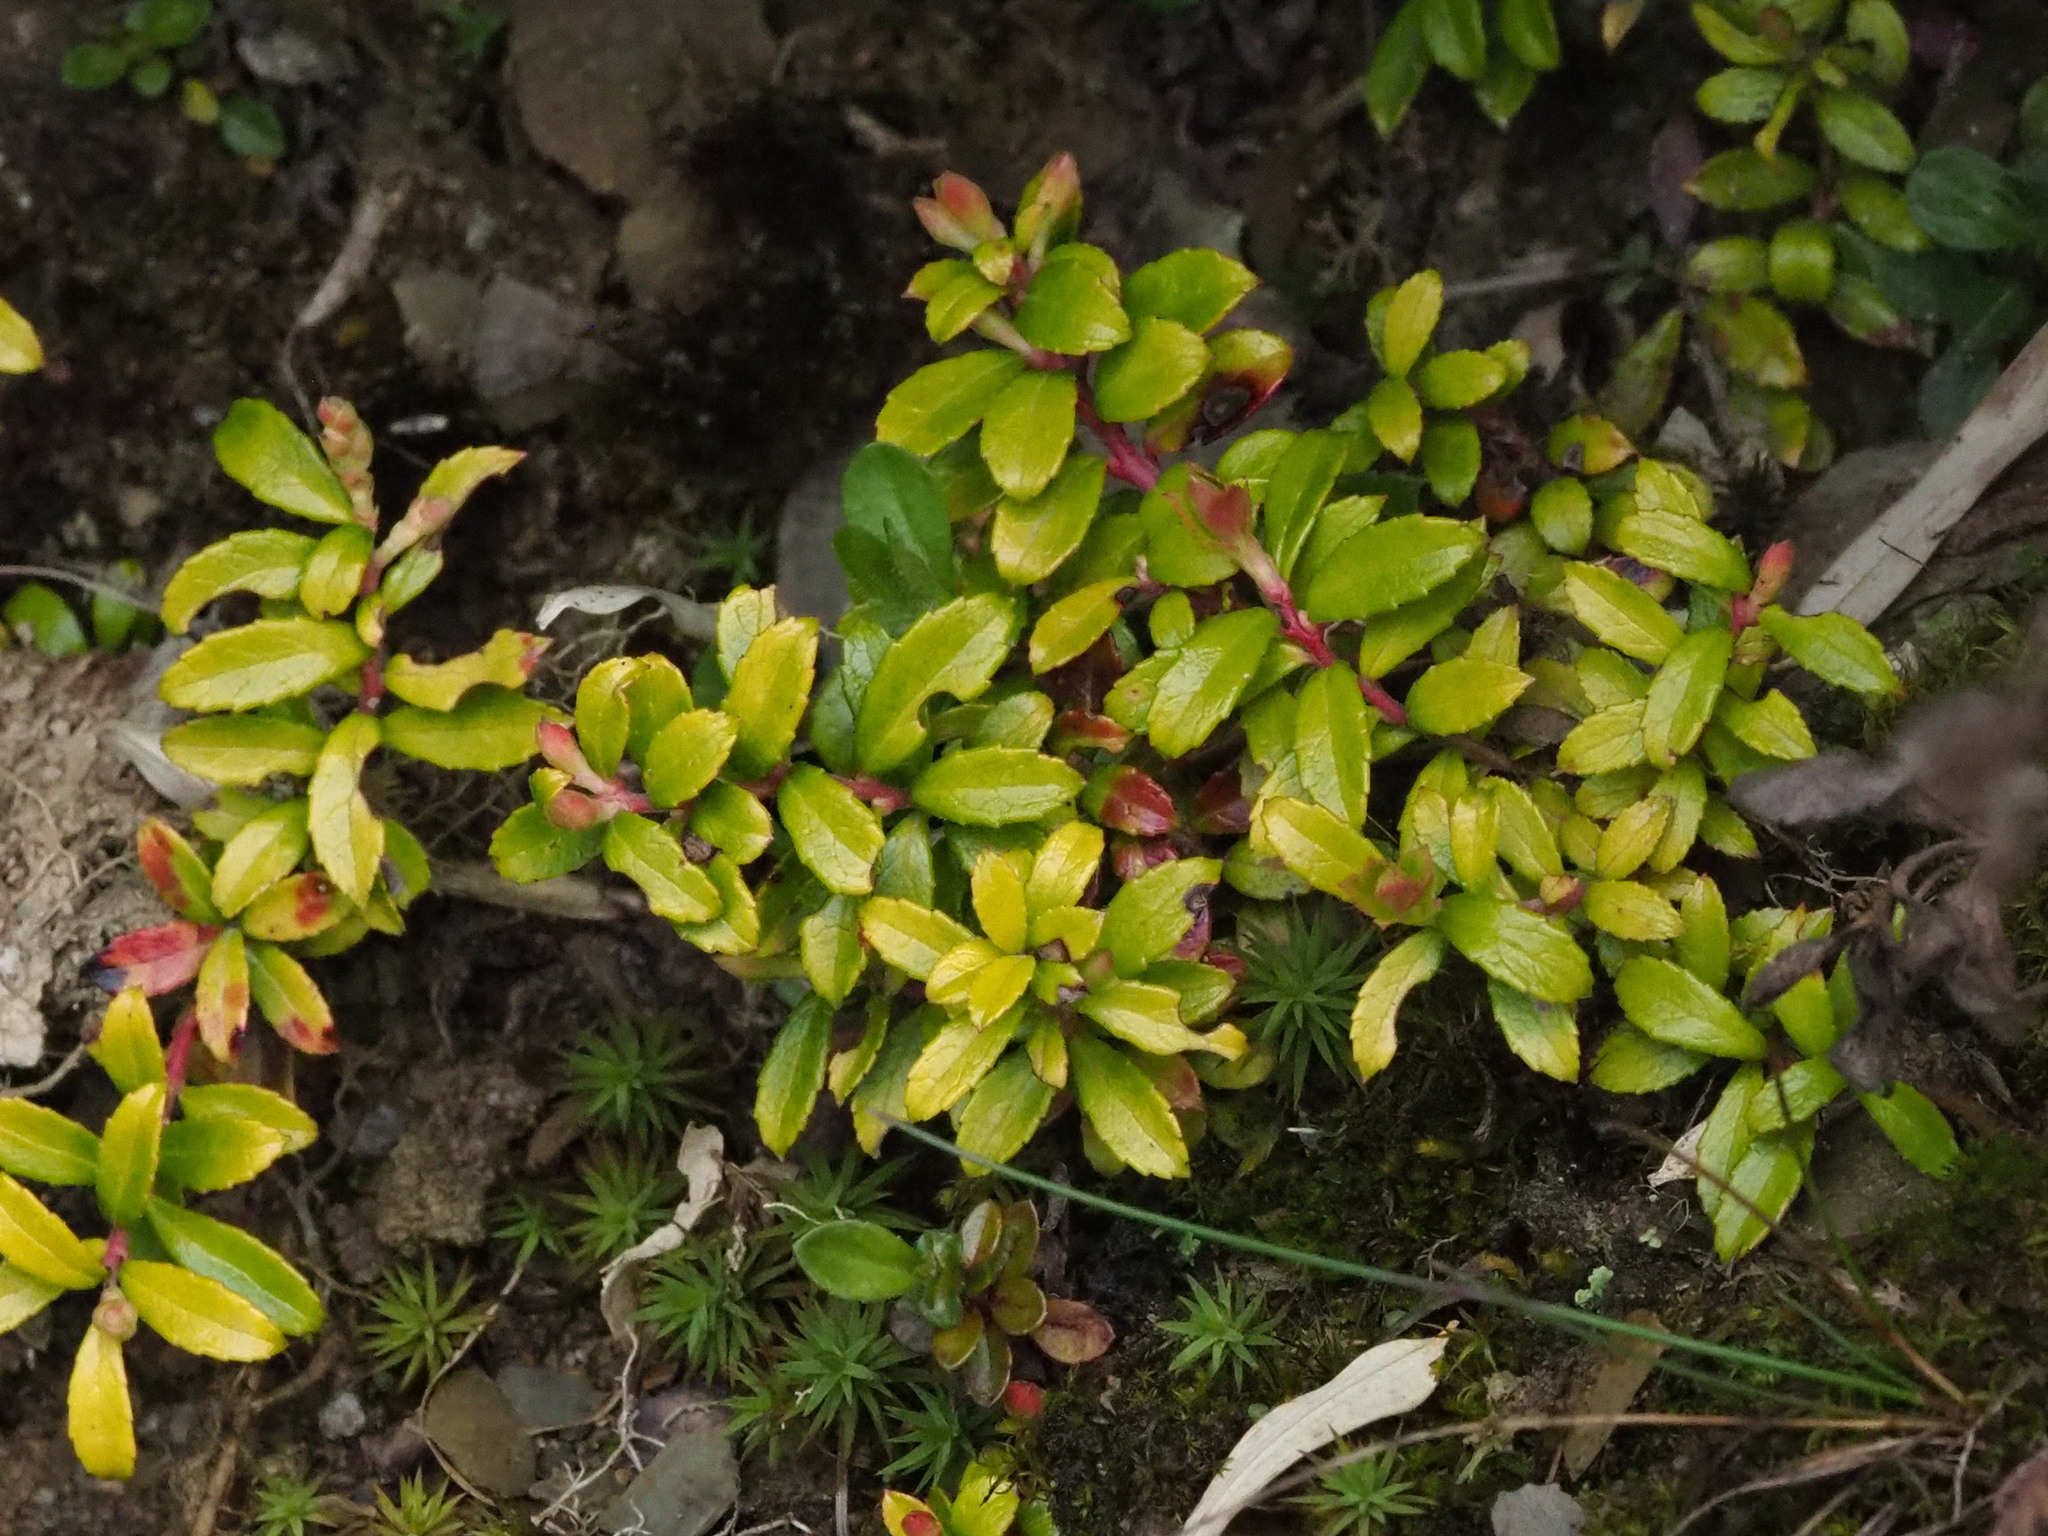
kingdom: Plantae
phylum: Tracheophyta
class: Magnoliopsida
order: Ericales
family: Ericaceae
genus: Gaultheria
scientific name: Gaultheria borneensis
